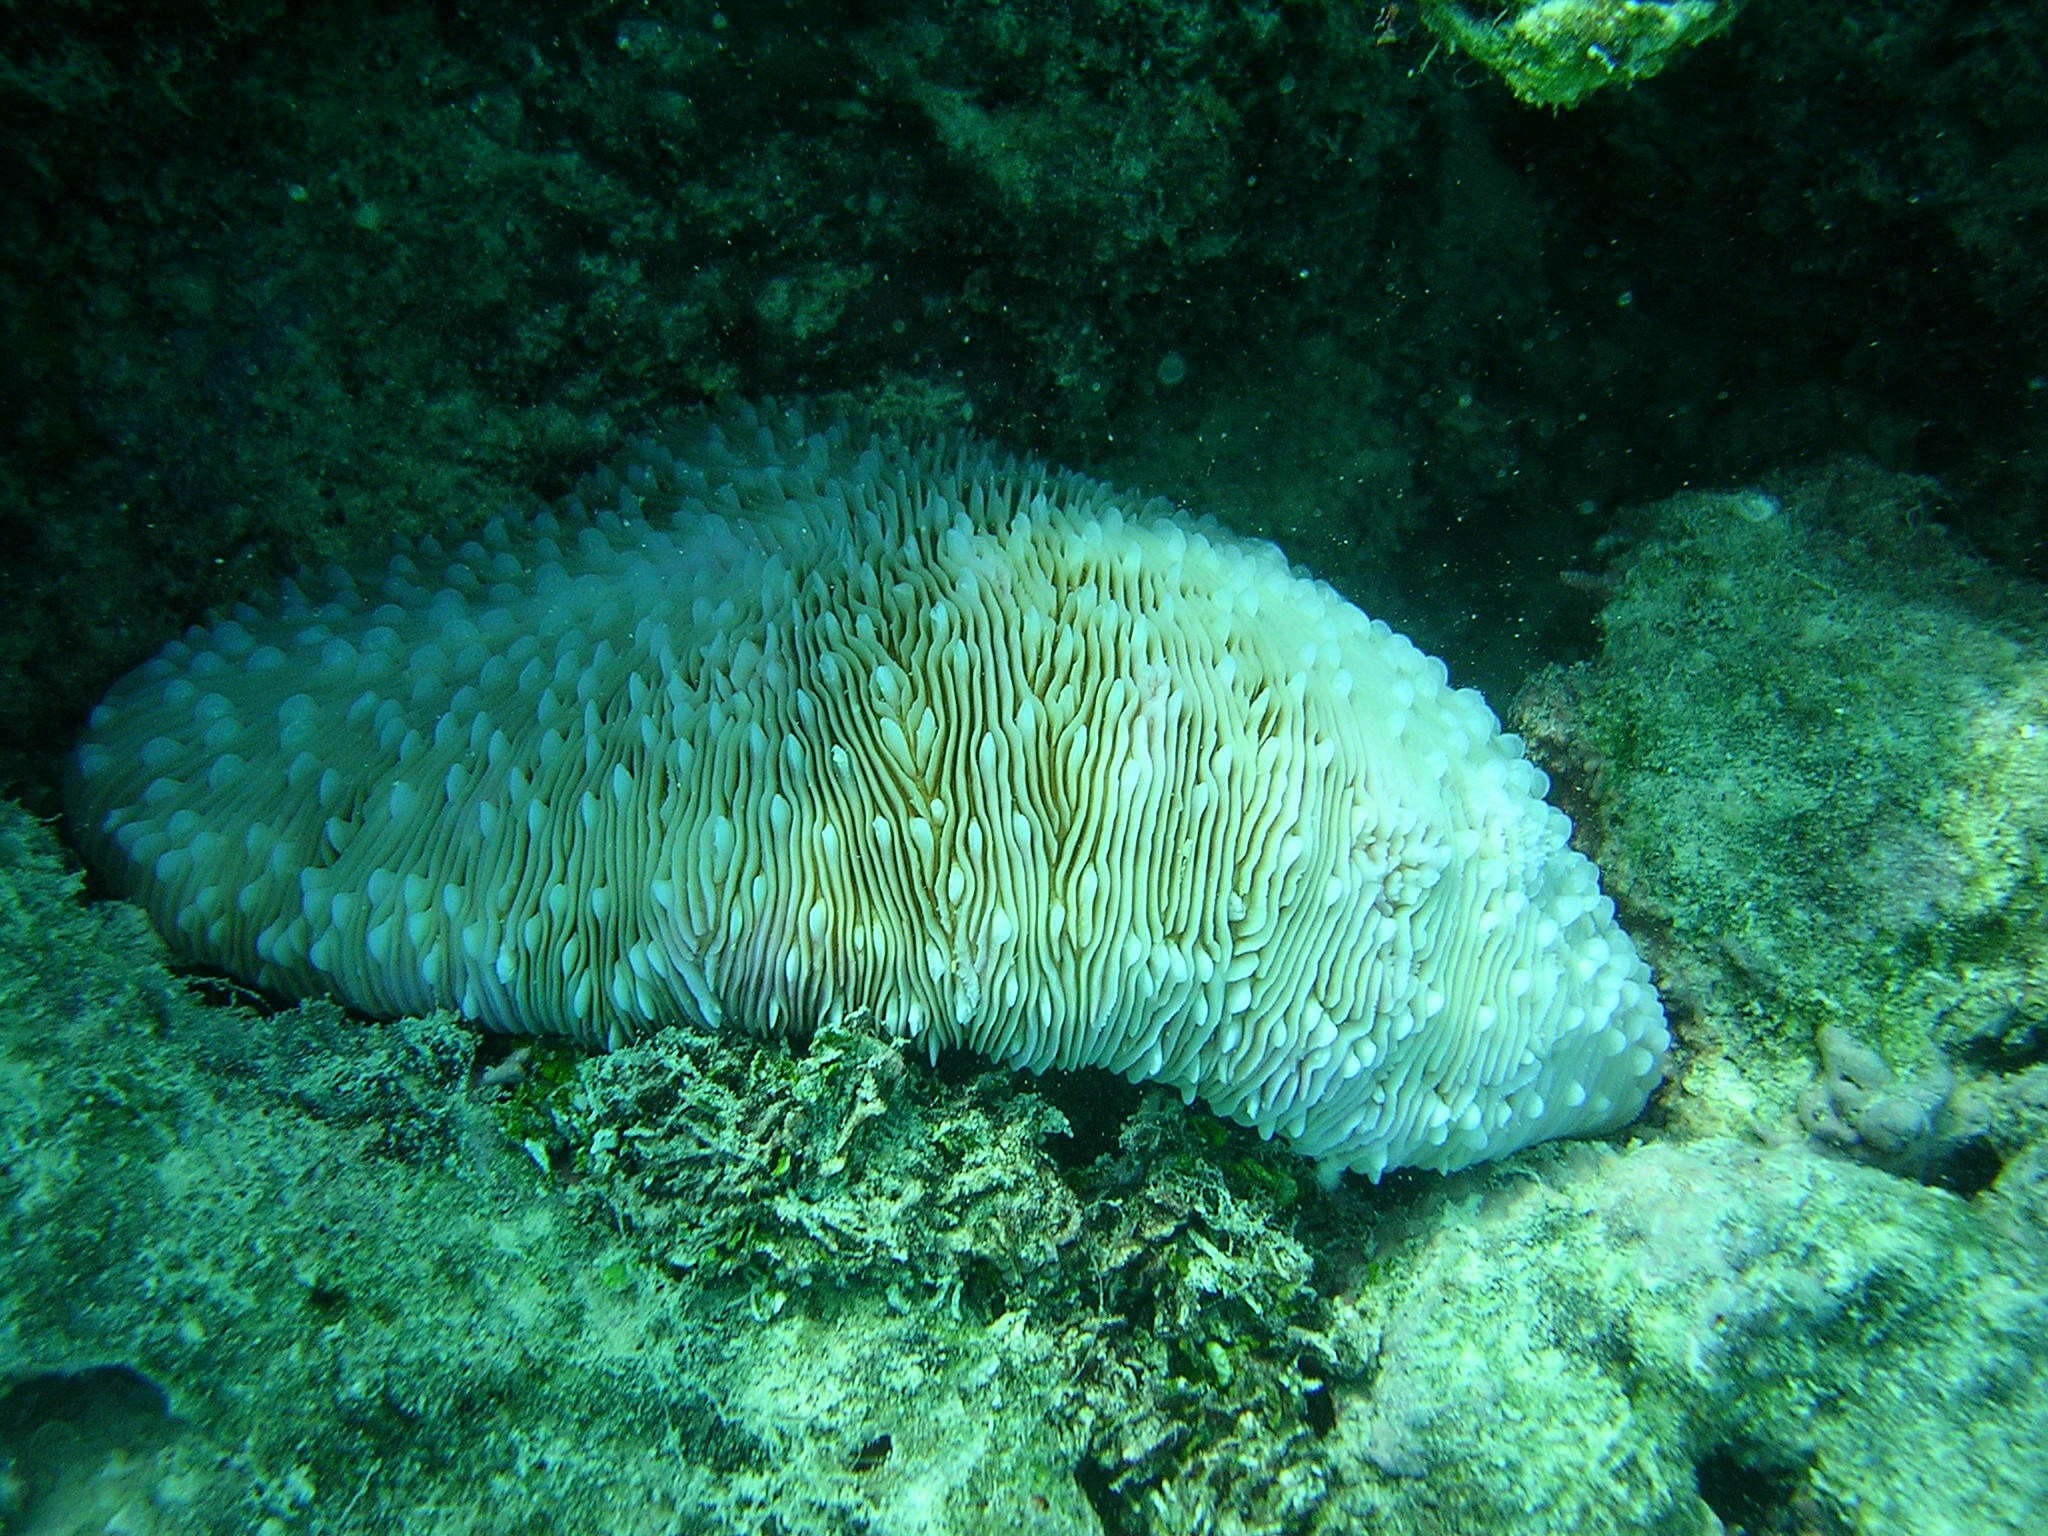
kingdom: Animalia
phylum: Cnidaria
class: Anthozoa
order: Scleractinia
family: Fungiidae
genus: Lobactis
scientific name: Lobactis scutaria
